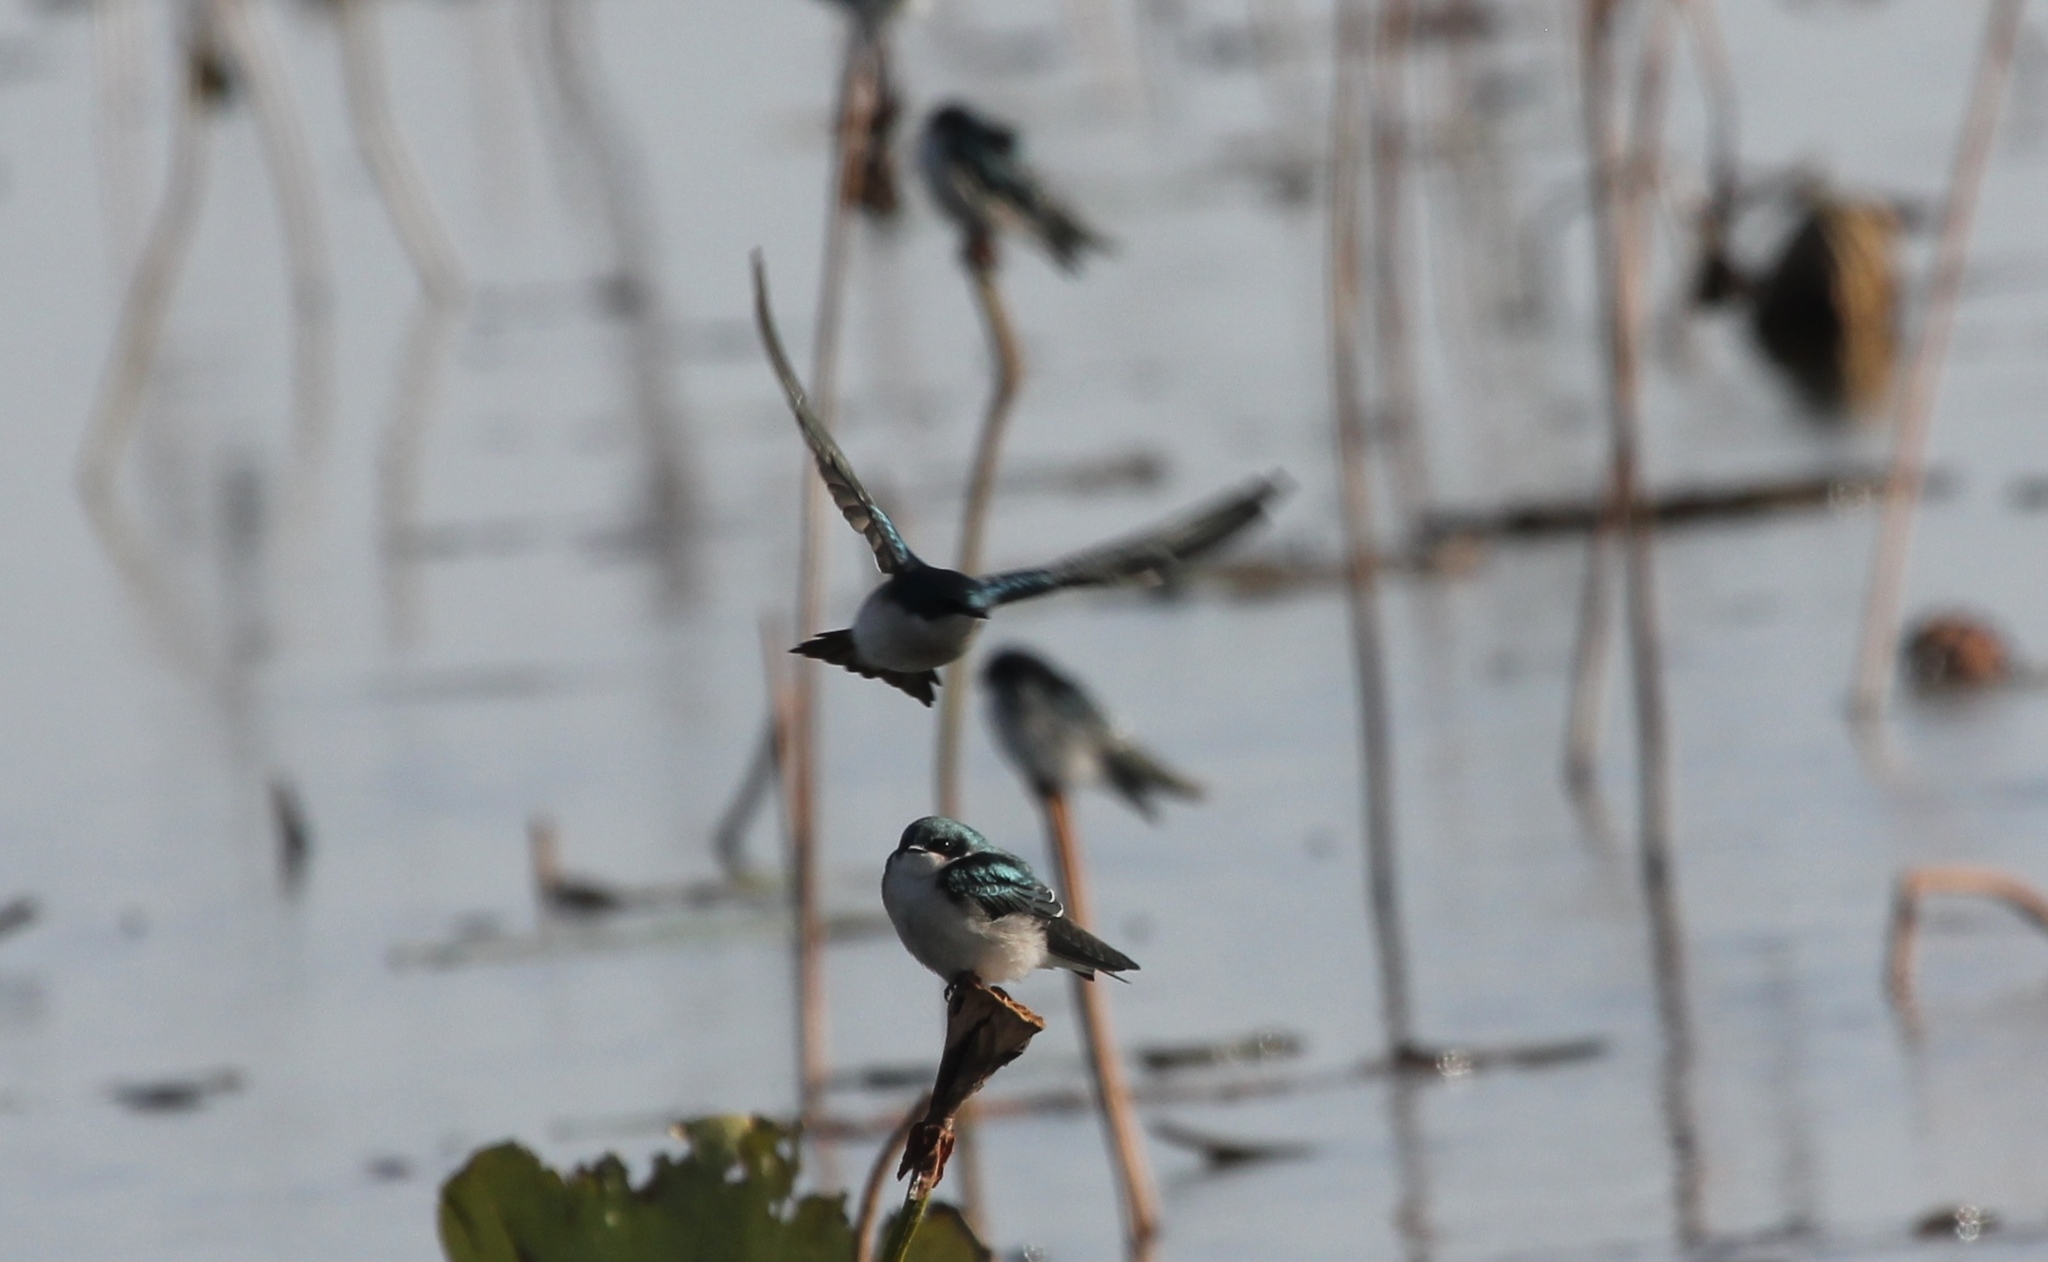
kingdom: Animalia
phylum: Chordata
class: Aves
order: Passeriformes
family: Hirundinidae
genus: Tachycineta
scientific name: Tachycineta bicolor
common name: Tree swallow
